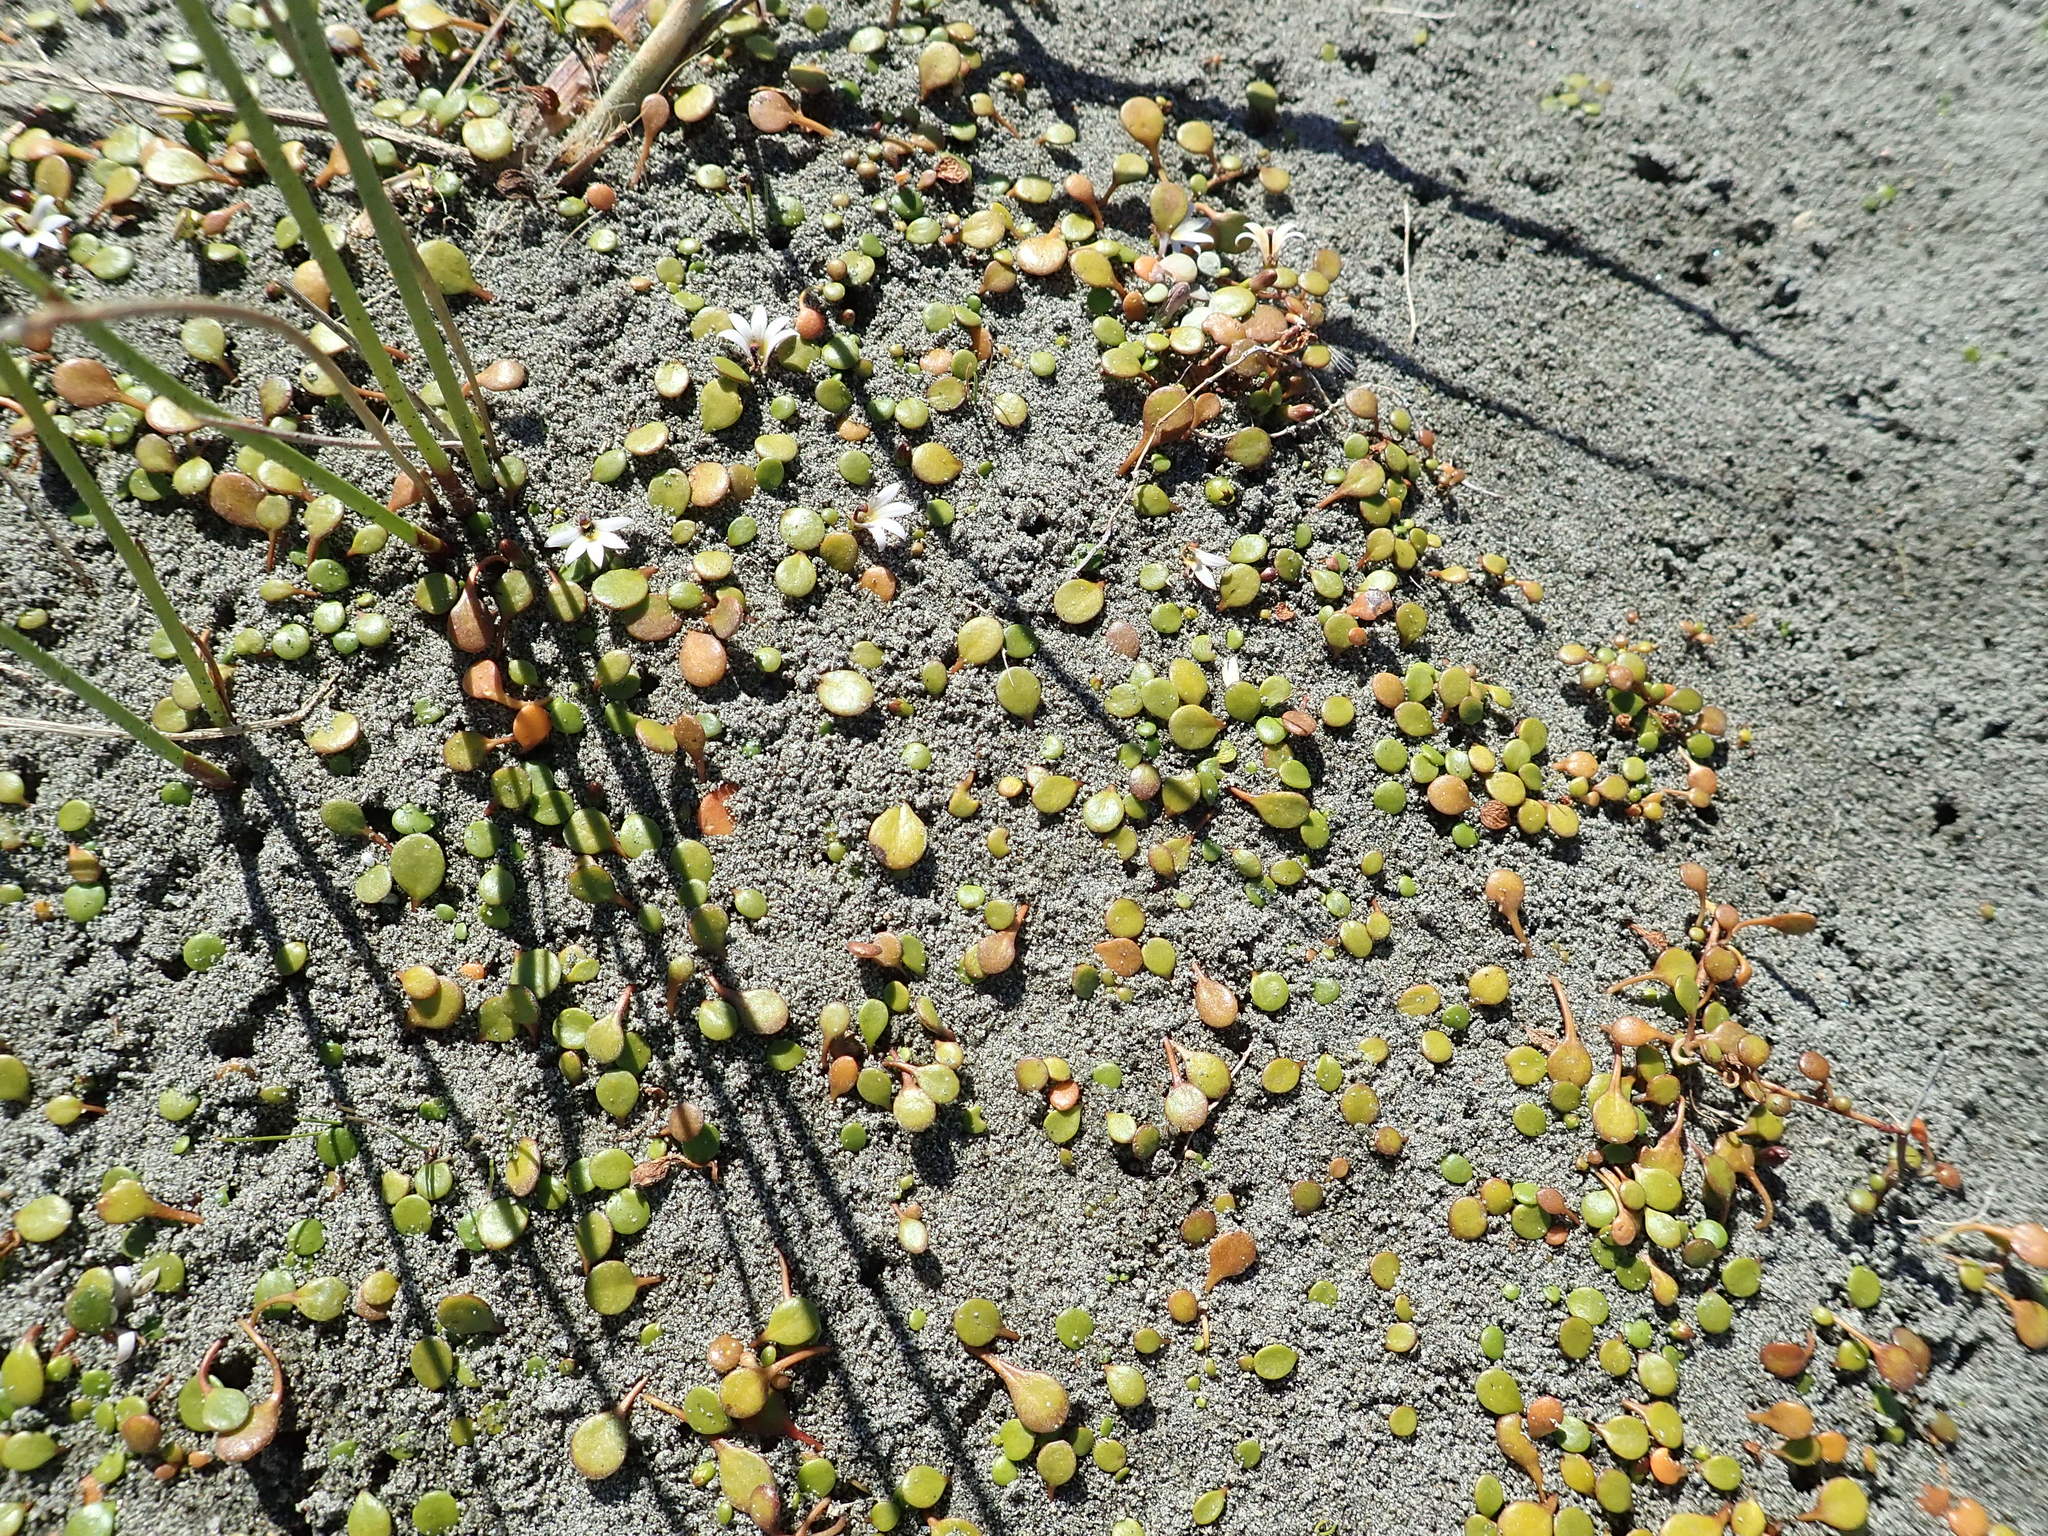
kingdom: Plantae
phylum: Tracheophyta
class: Magnoliopsida
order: Asterales
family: Goodeniaceae
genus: Goodenia
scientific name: Goodenia heenanii
